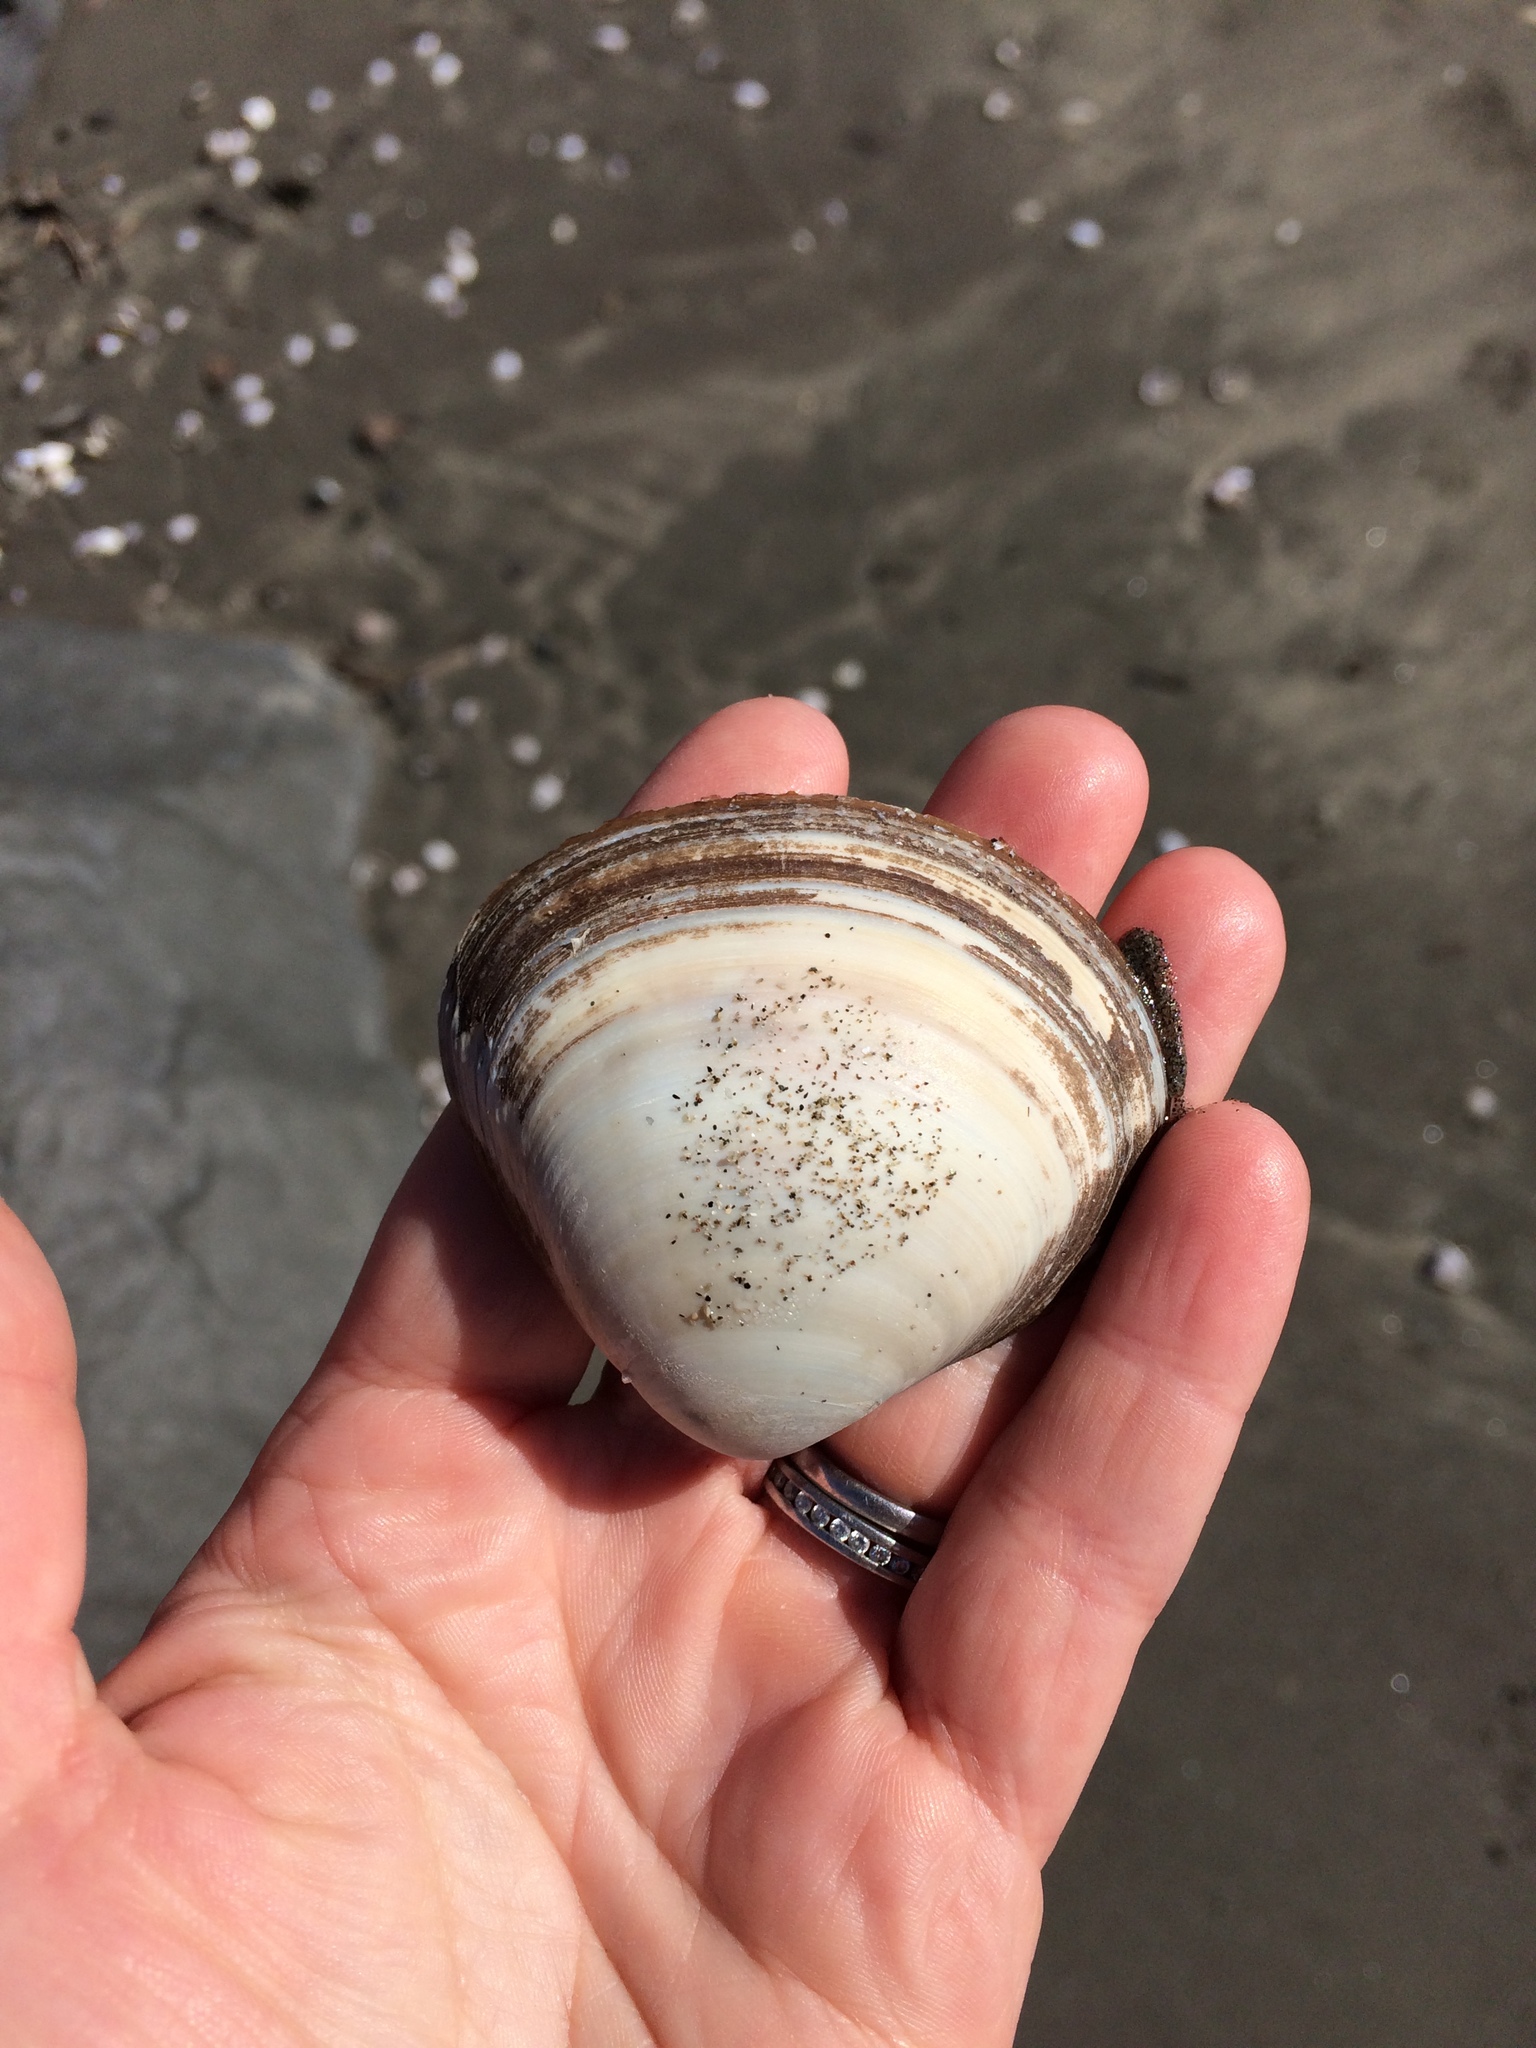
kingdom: Animalia
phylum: Mollusca
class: Bivalvia
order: Venerida
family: Mactridae
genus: Spisula
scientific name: Spisula discors
